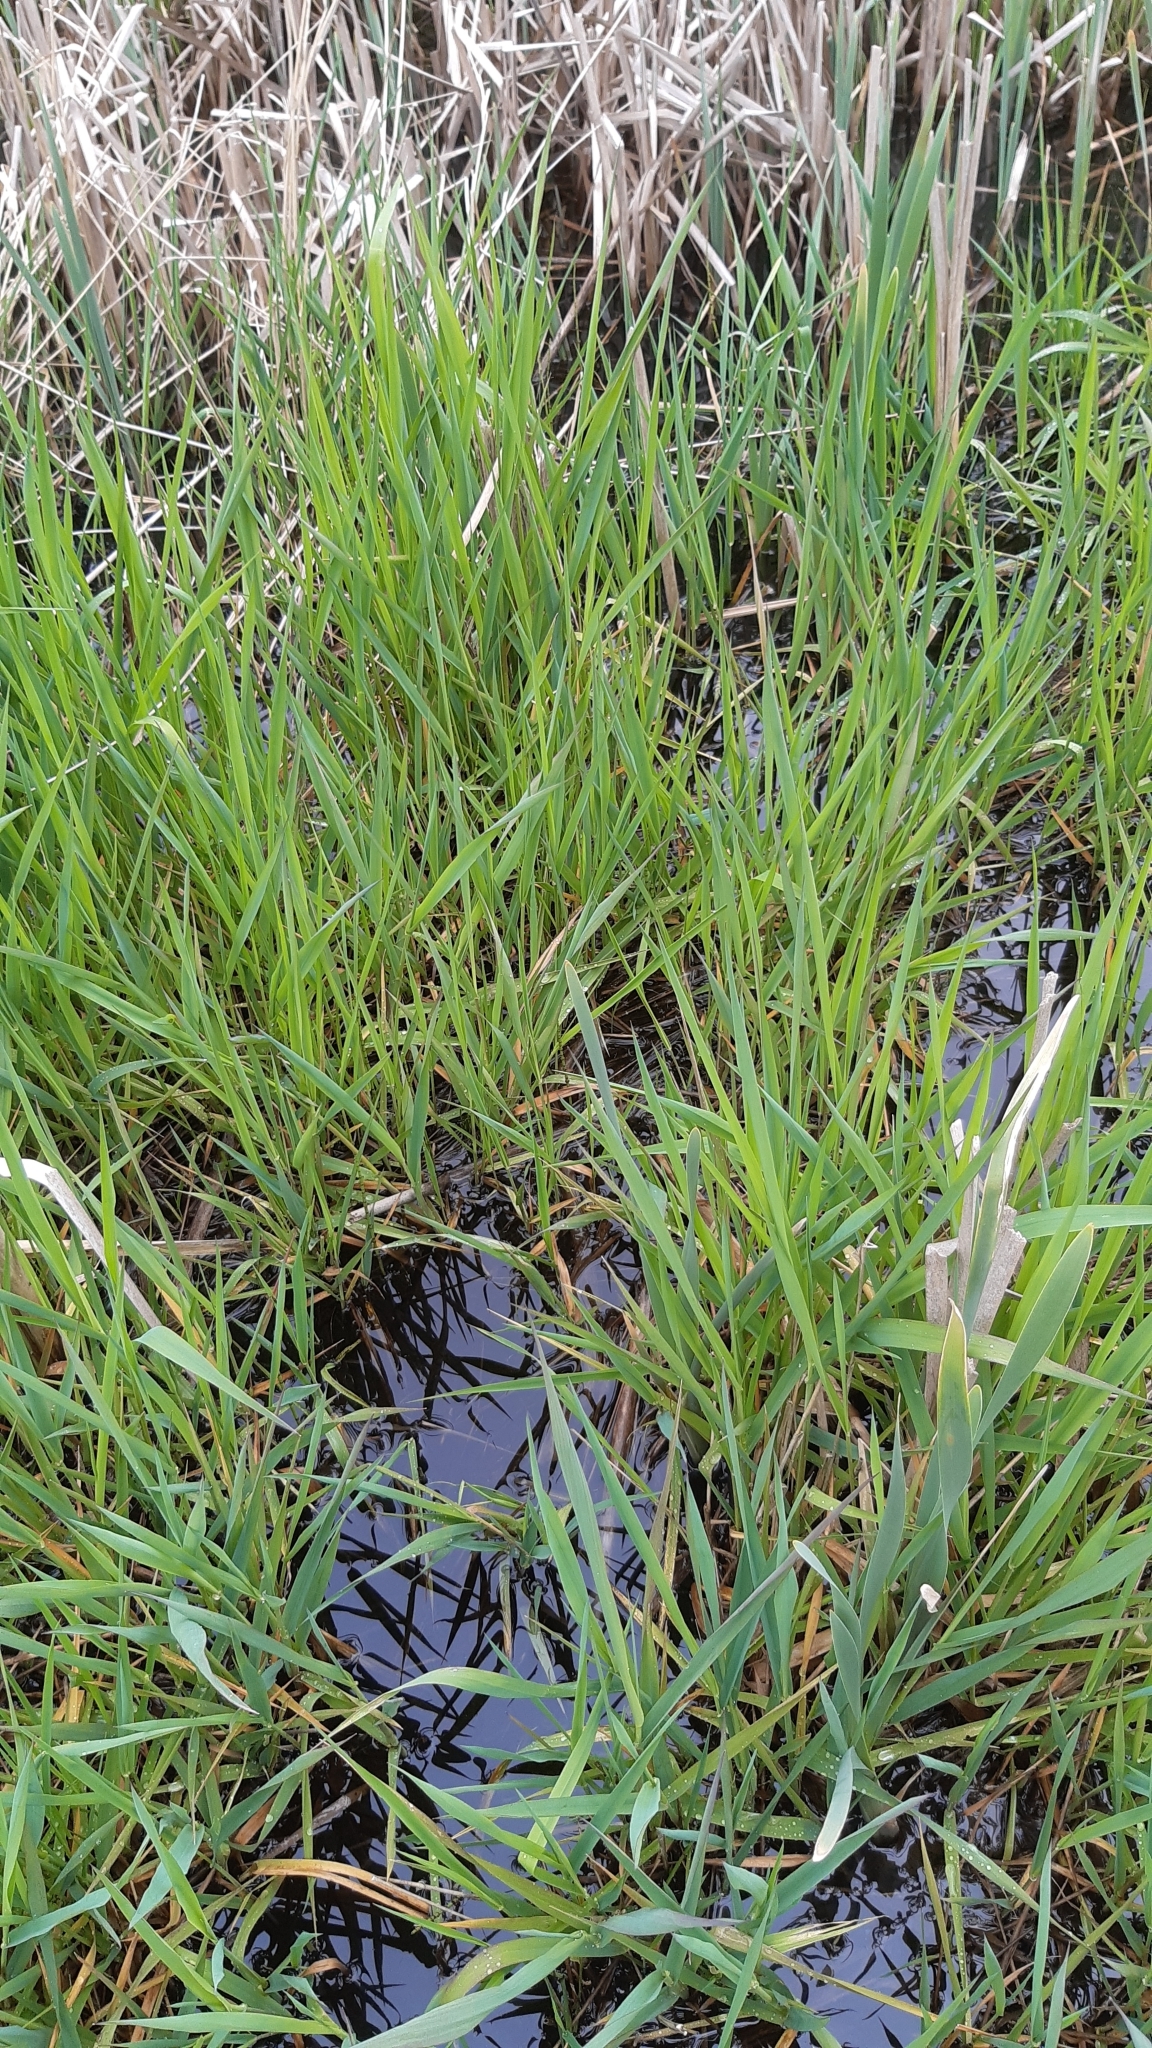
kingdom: Plantae
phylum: Tracheophyta
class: Liliopsida
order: Poales
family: Poaceae
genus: Phalaris
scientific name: Phalaris arundinacea
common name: Reed canary-grass
